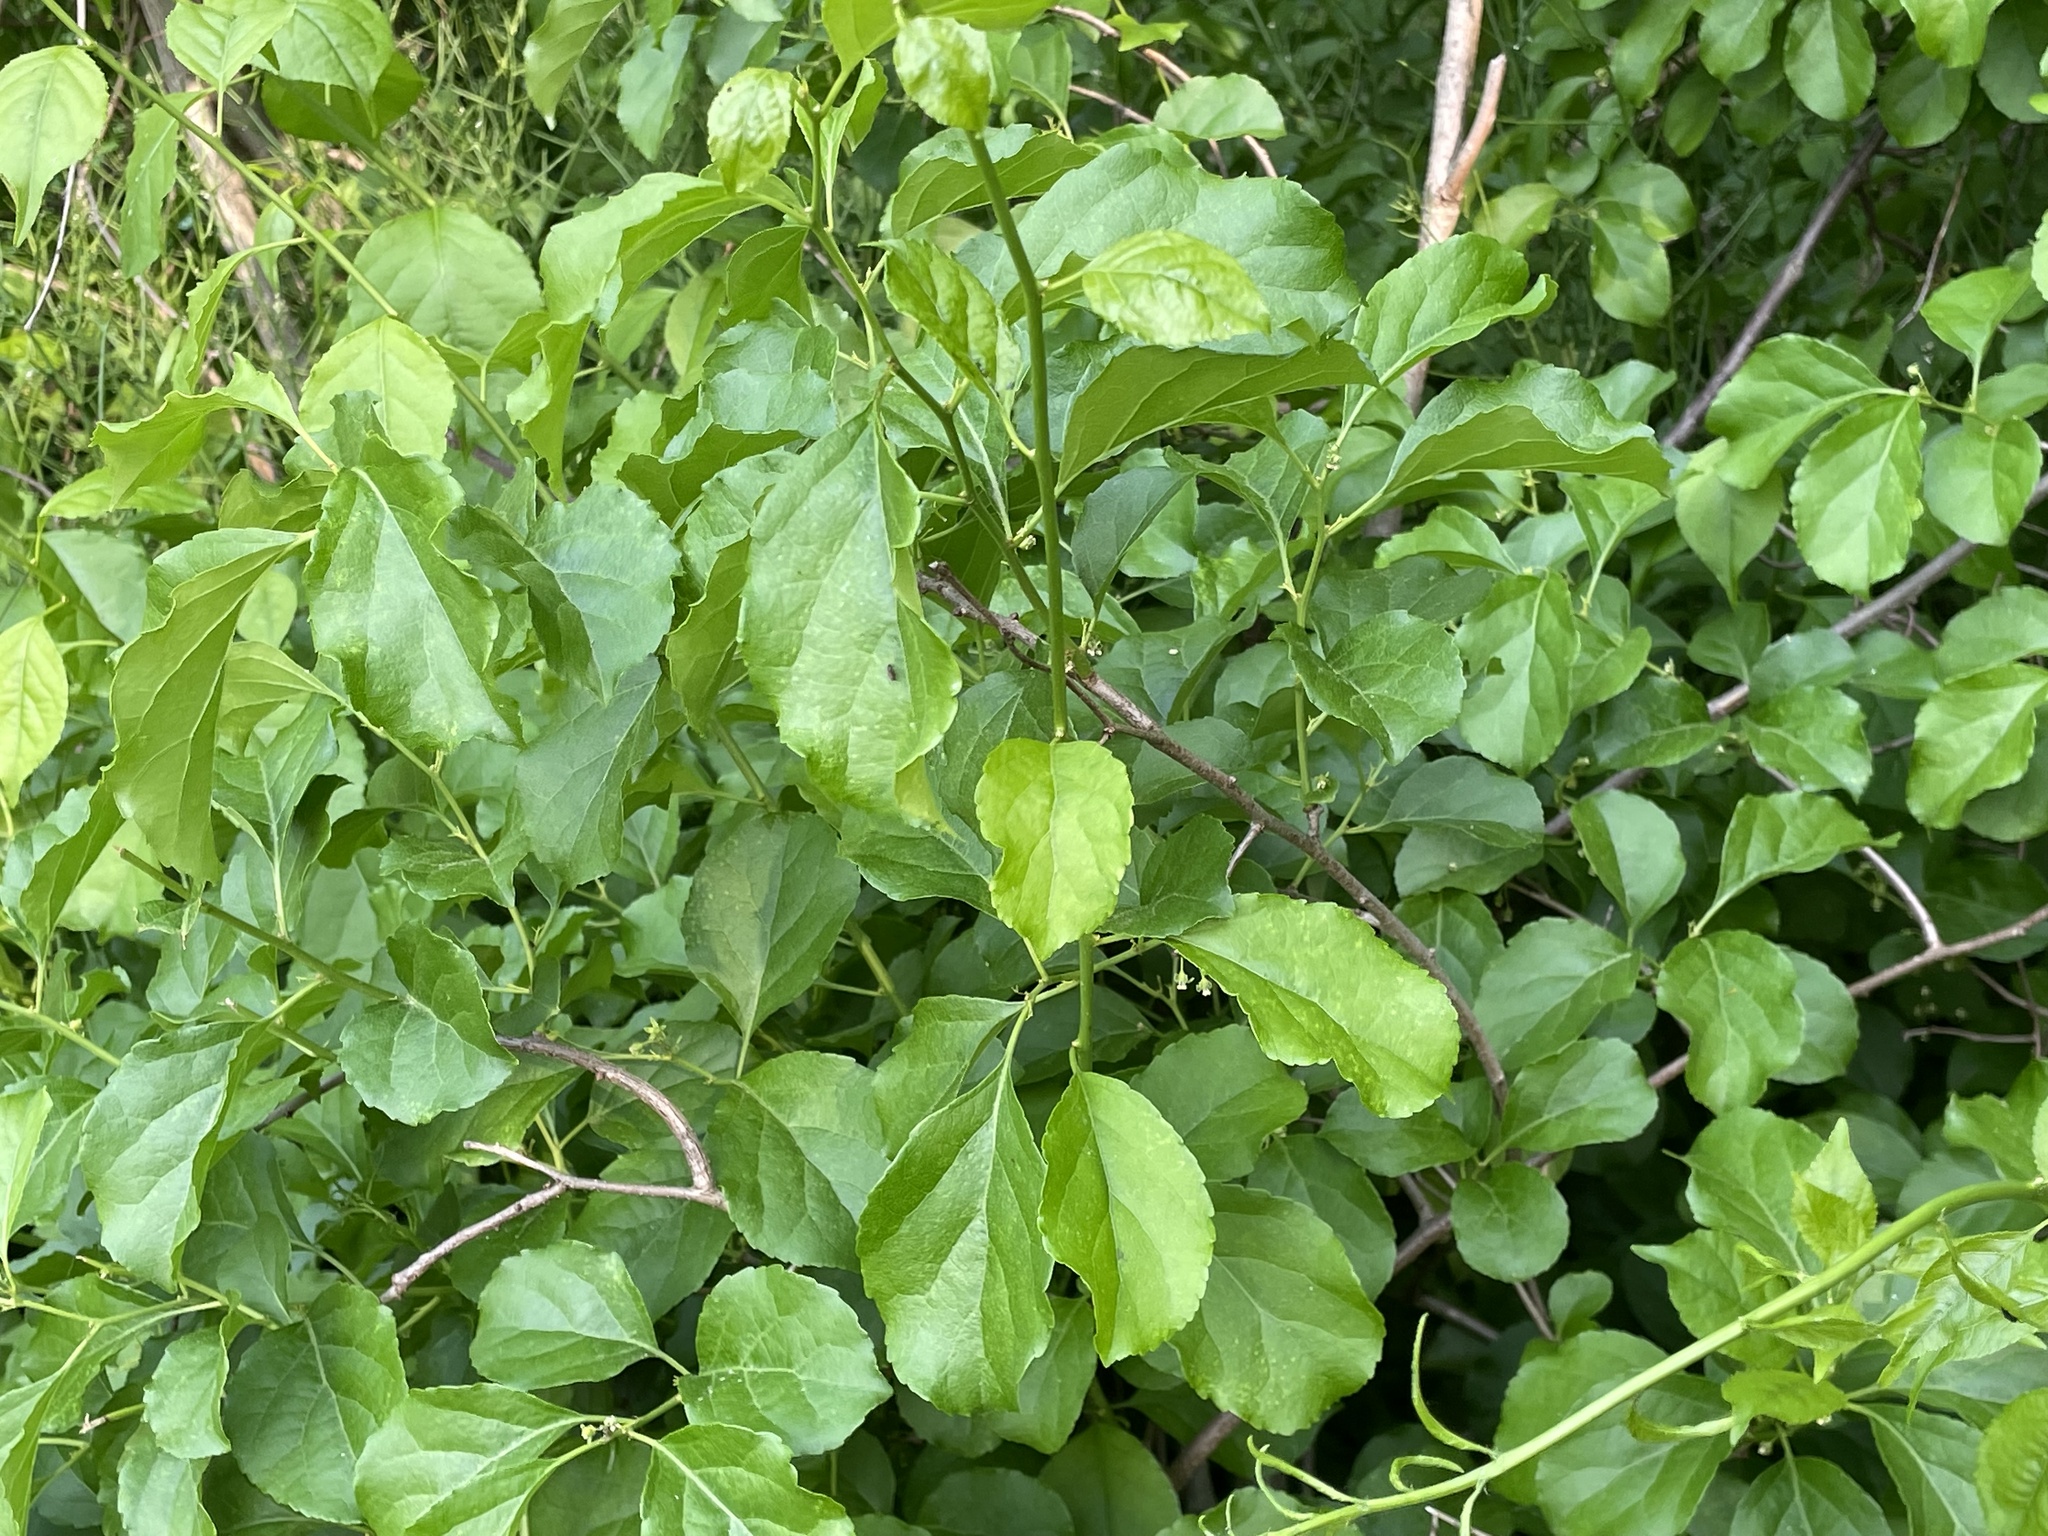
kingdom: Plantae
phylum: Tracheophyta
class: Magnoliopsida
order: Celastrales
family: Celastraceae
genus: Celastrus
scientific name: Celastrus orbiculatus
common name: Oriental bittersweet
